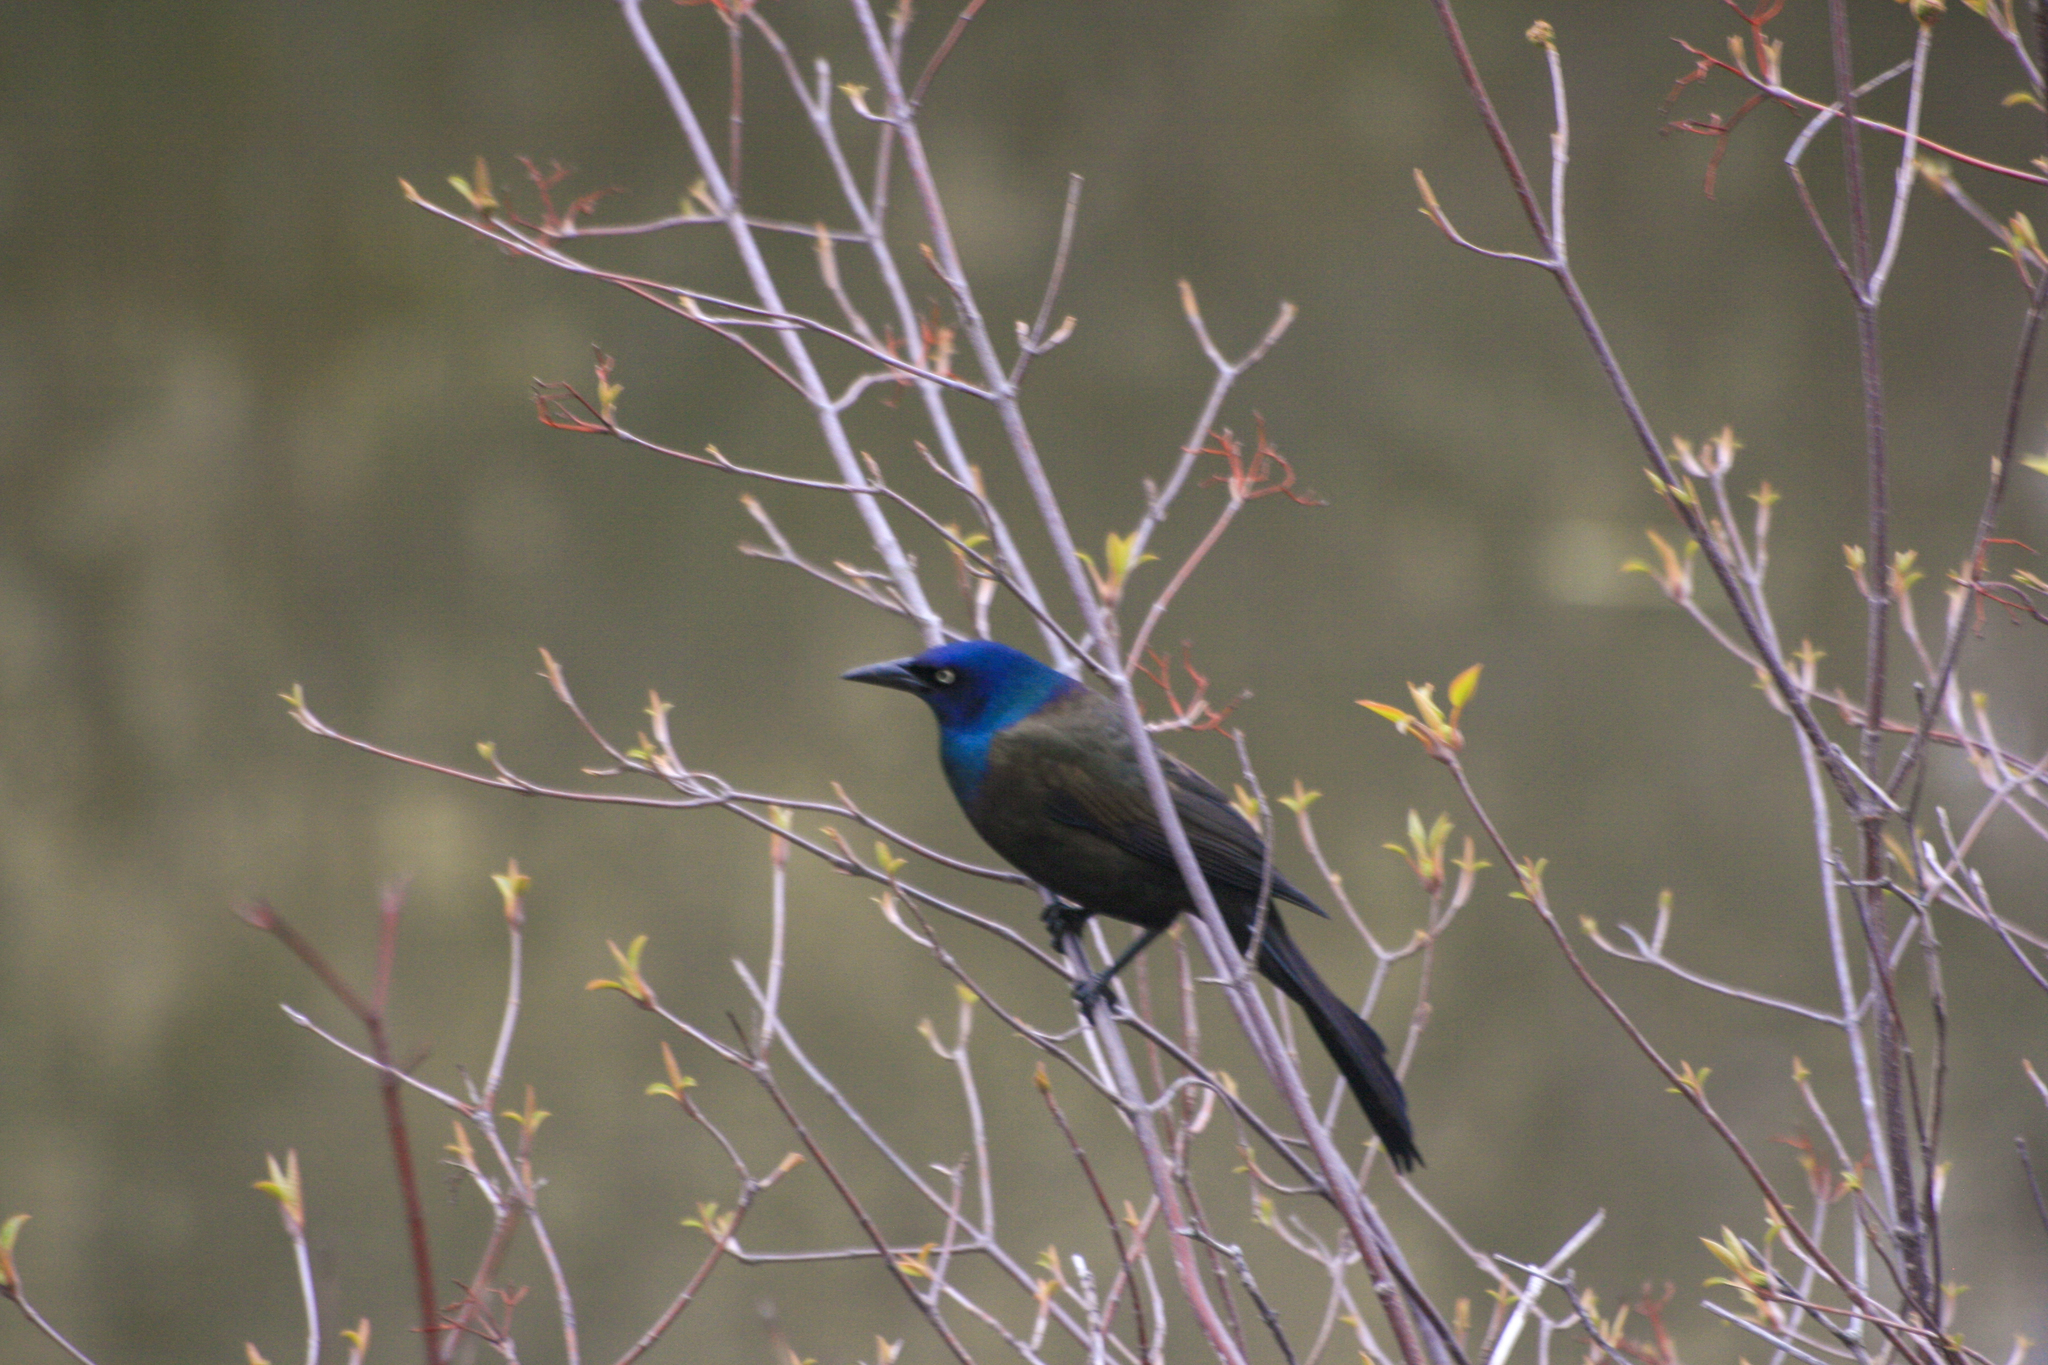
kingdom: Animalia
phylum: Chordata
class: Aves
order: Passeriformes
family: Icteridae
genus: Quiscalus
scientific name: Quiscalus quiscula
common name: Common grackle
